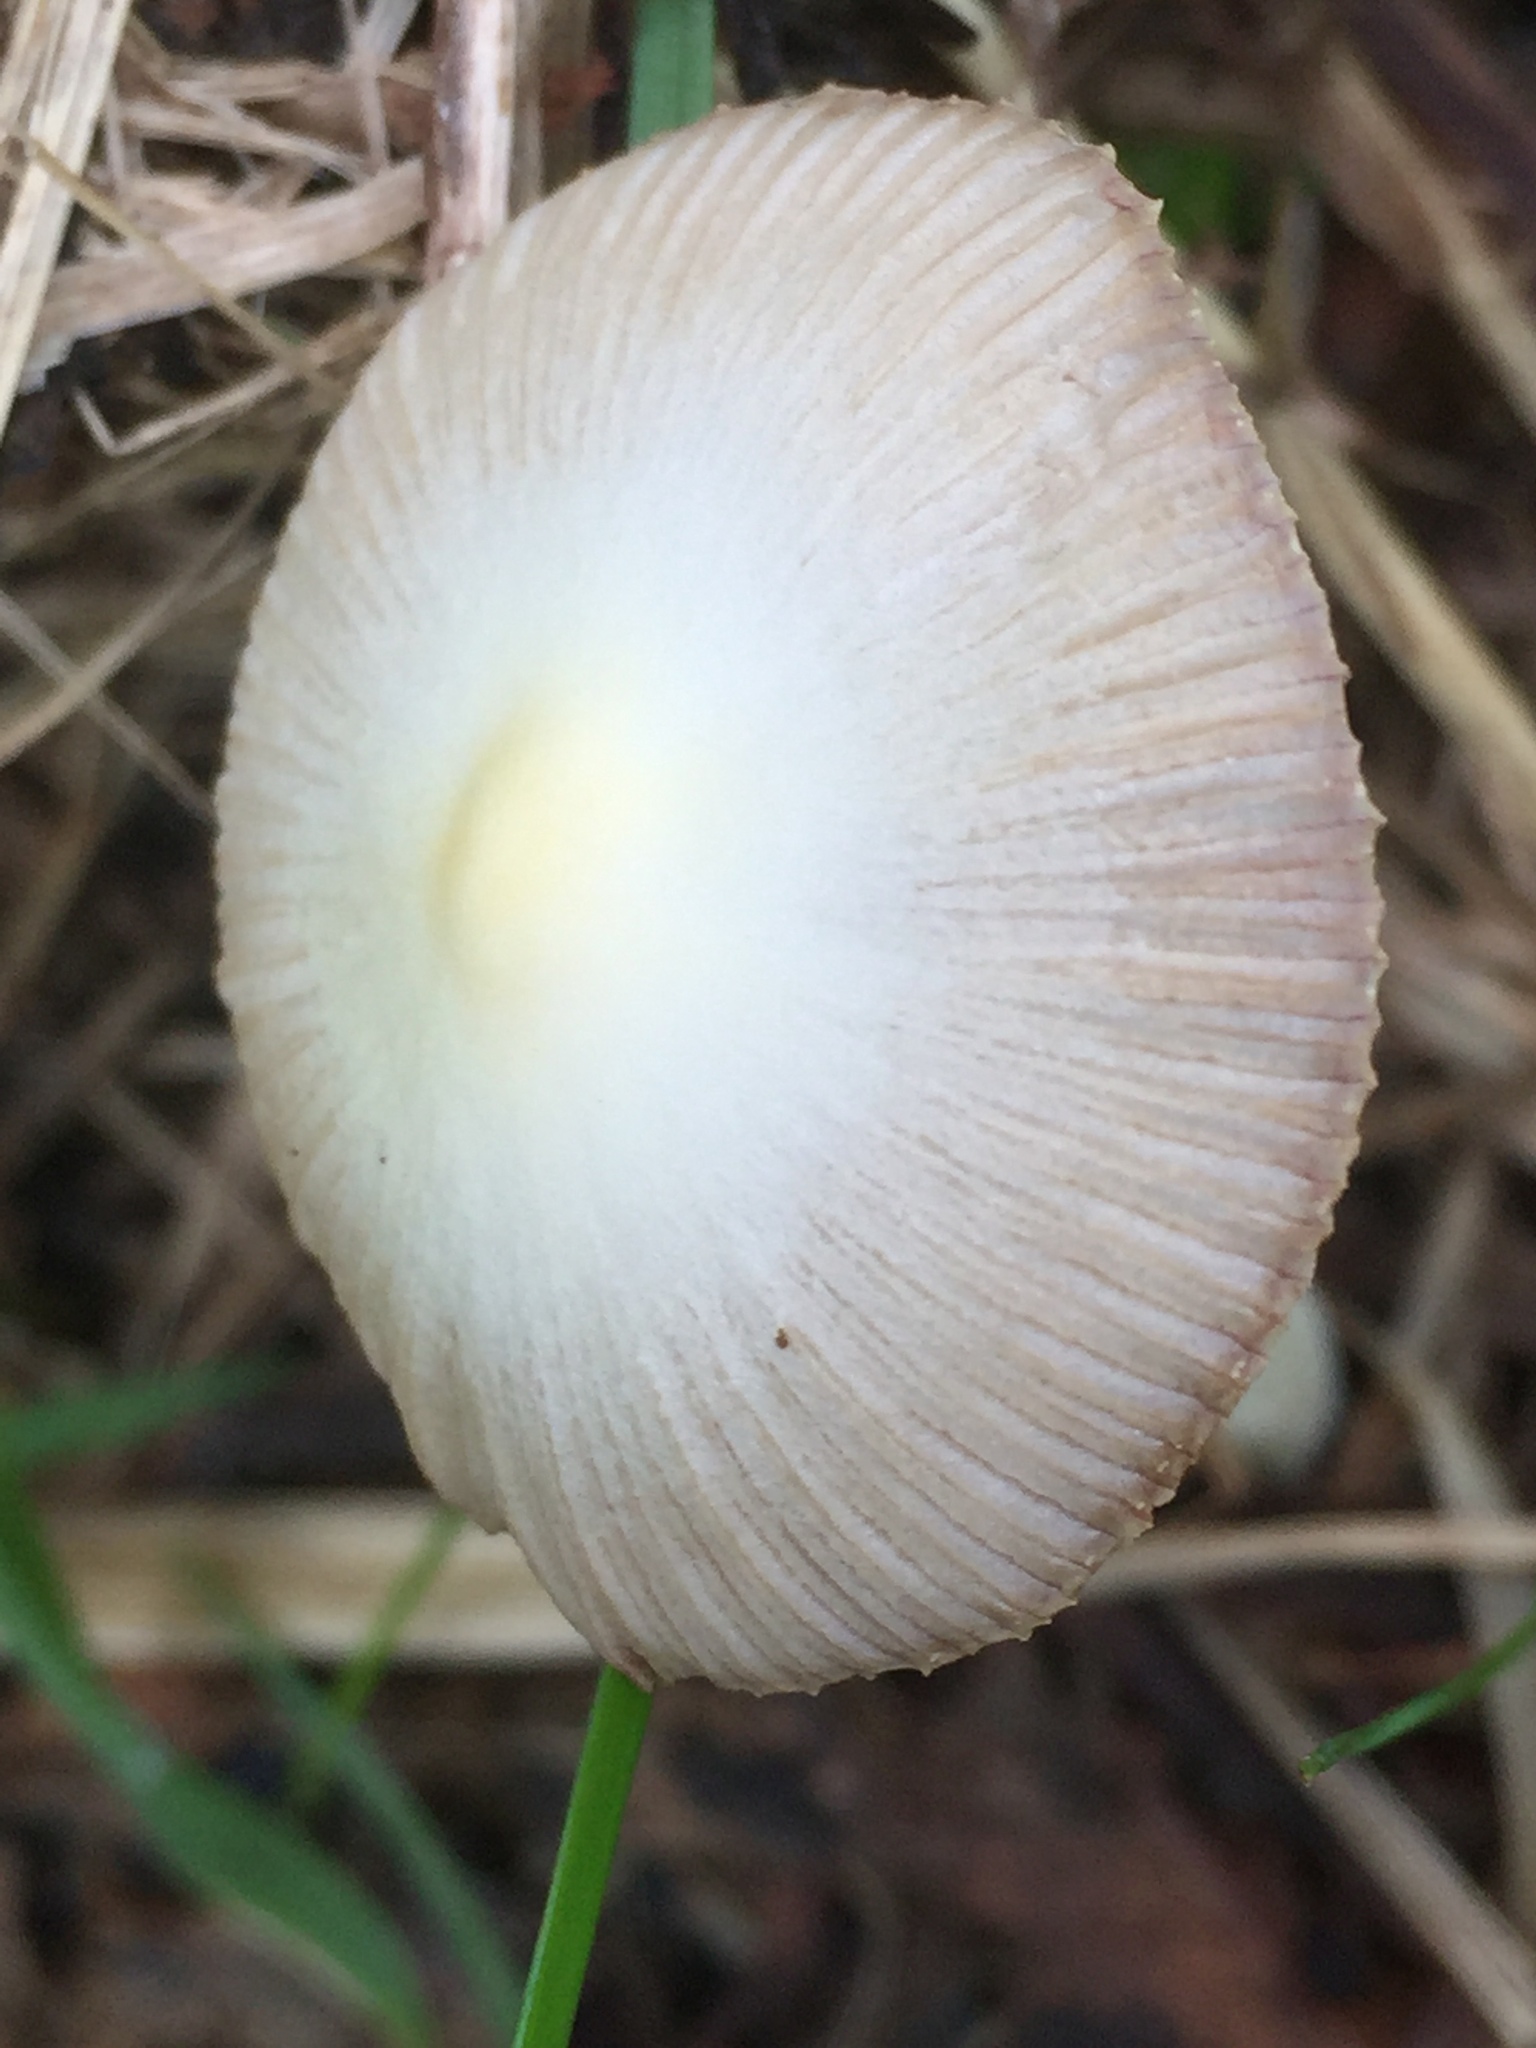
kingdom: Fungi
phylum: Basidiomycota
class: Agaricomycetes
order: Agaricales
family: Bolbitiaceae
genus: Bolbitius
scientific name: Bolbitius titubans
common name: Yellow fieldcap
